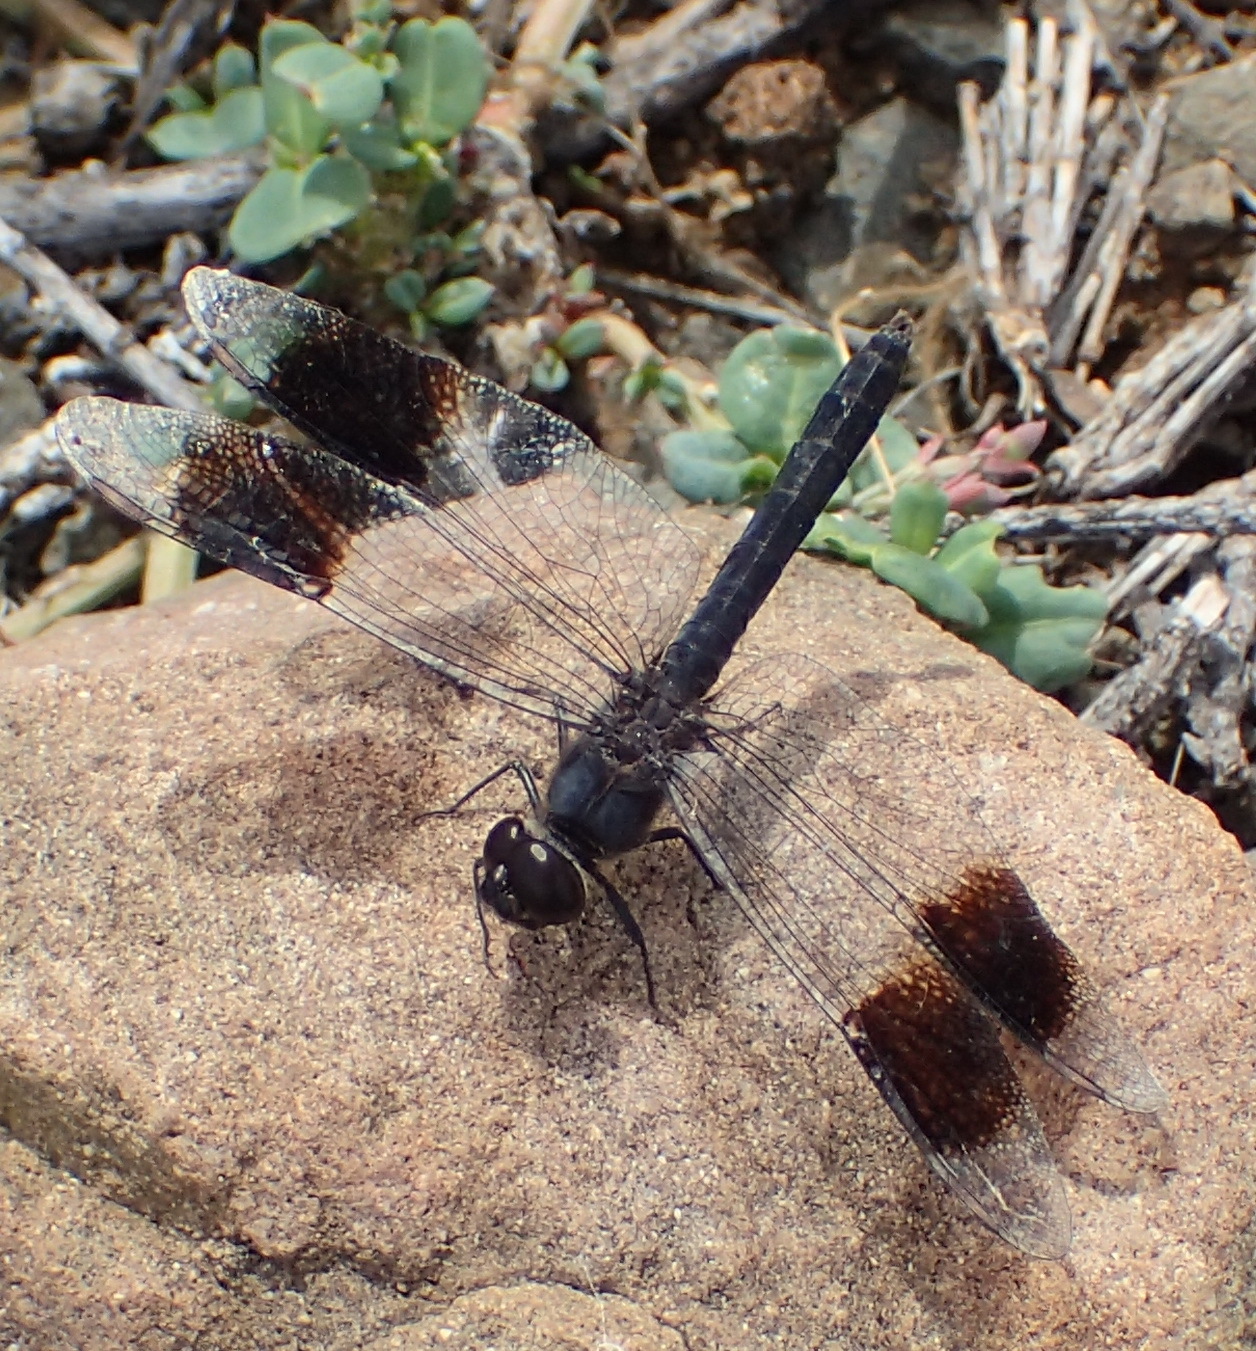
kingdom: Animalia
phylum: Arthropoda
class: Insecta
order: Odonata
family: Libellulidae
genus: Brachythemis
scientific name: Brachythemis leucosticta
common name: Banded groundling
